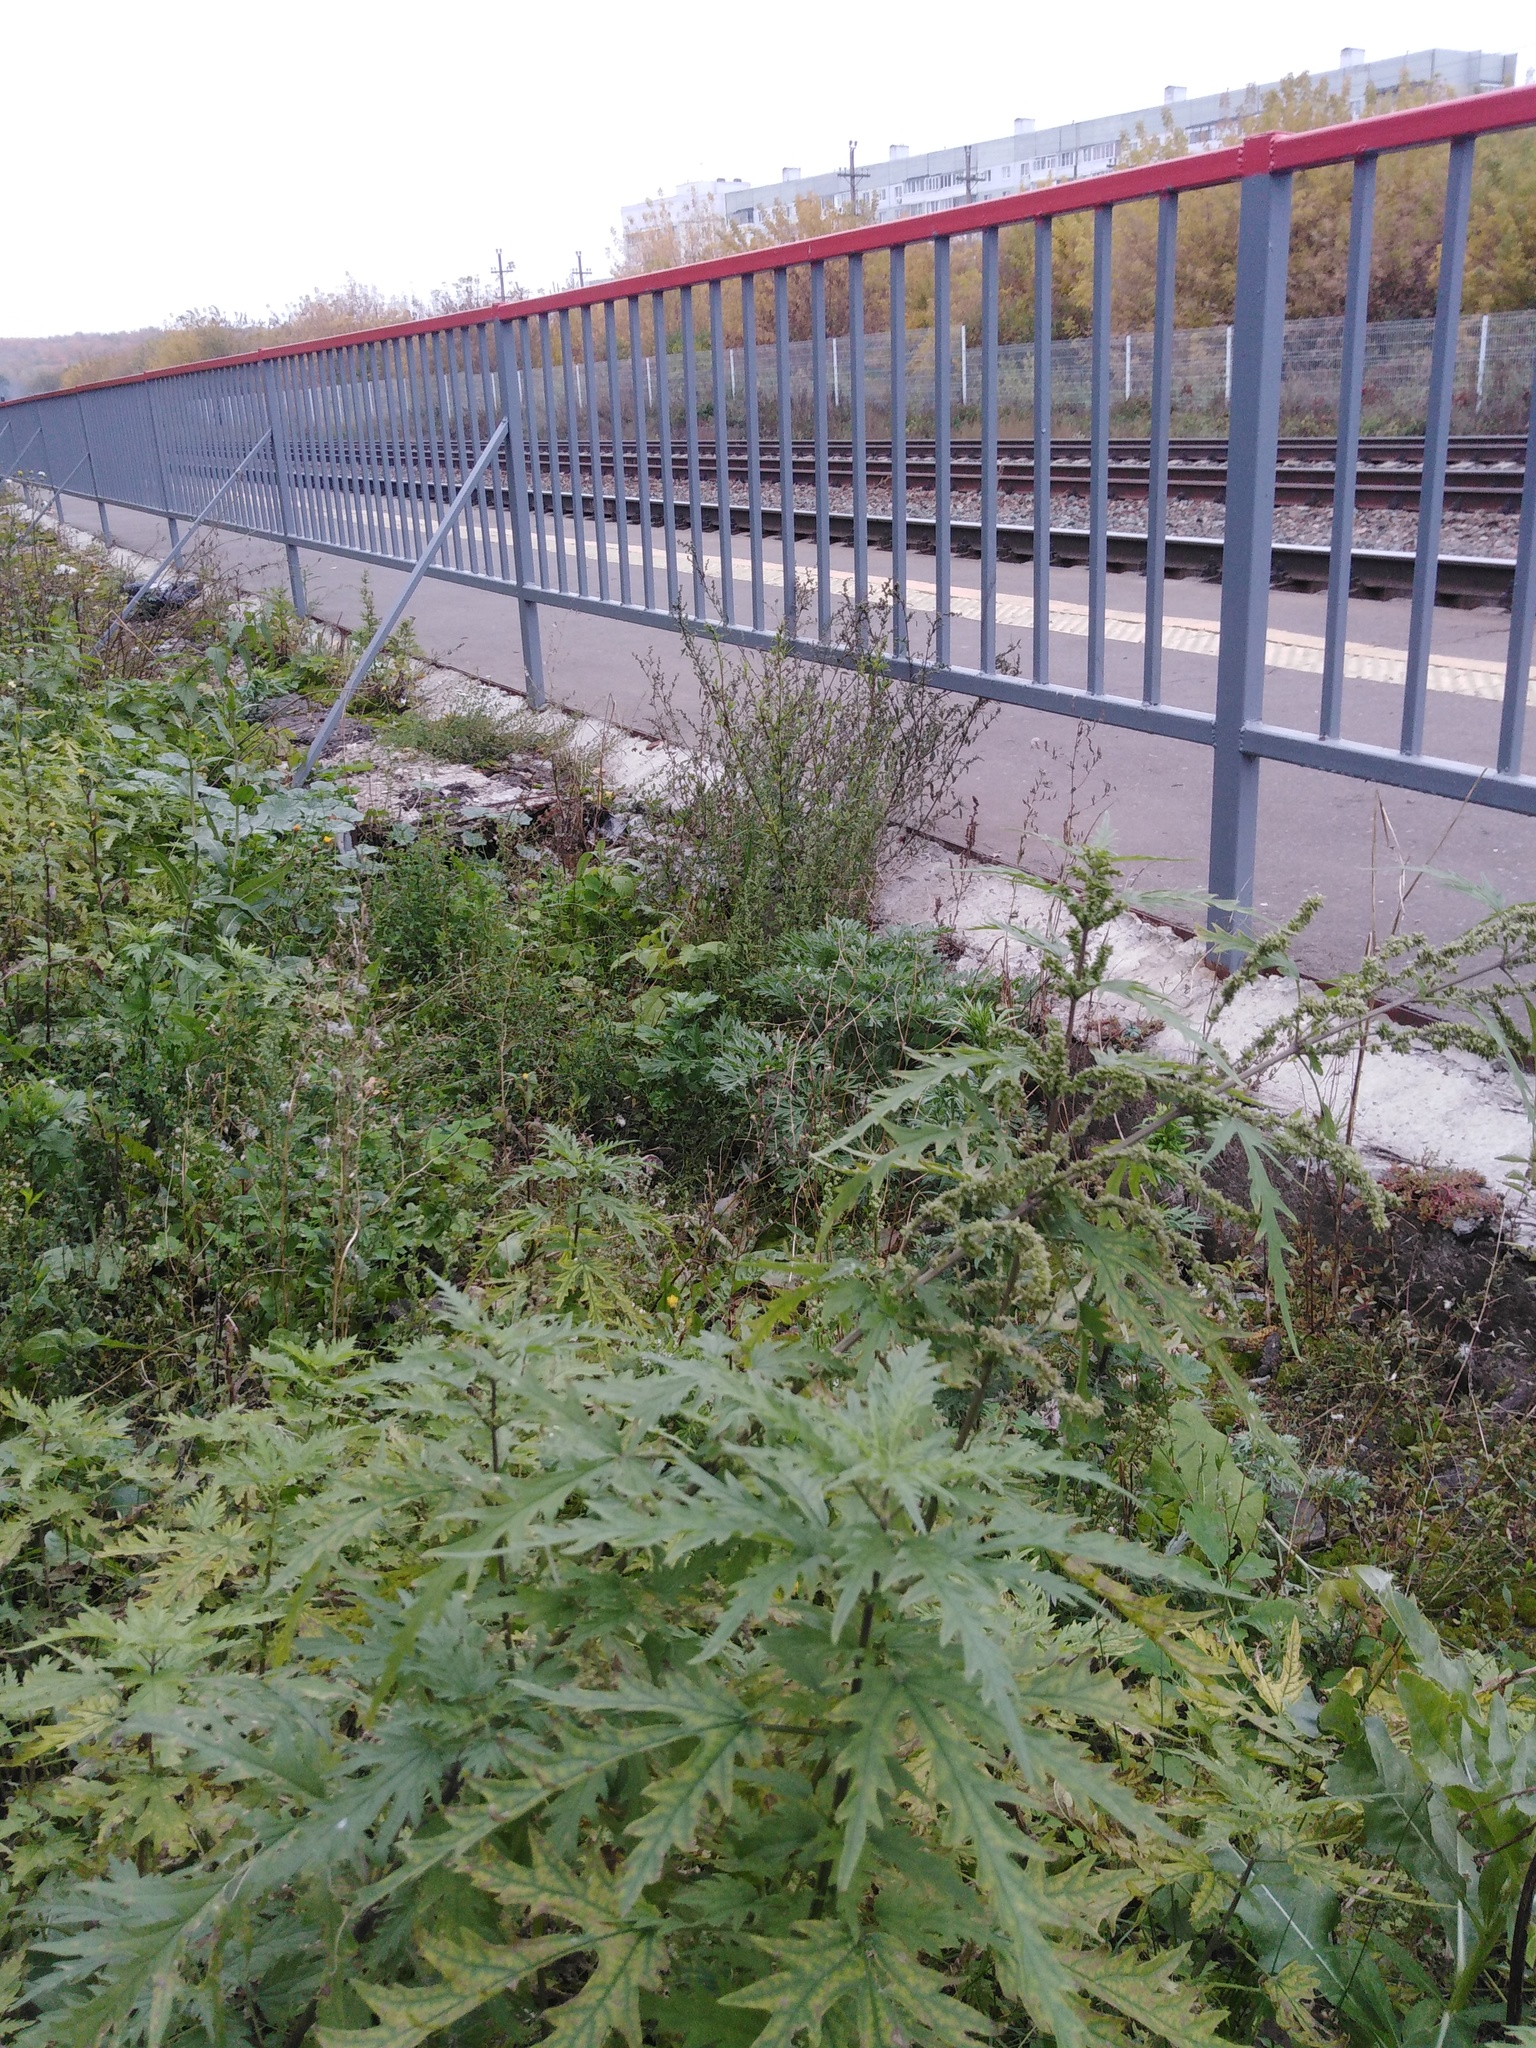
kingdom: Plantae
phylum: Tracheophyta
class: Magnoliopsida
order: Rosales
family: Urticaceae
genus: Urtica
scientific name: Urtica cannabina
